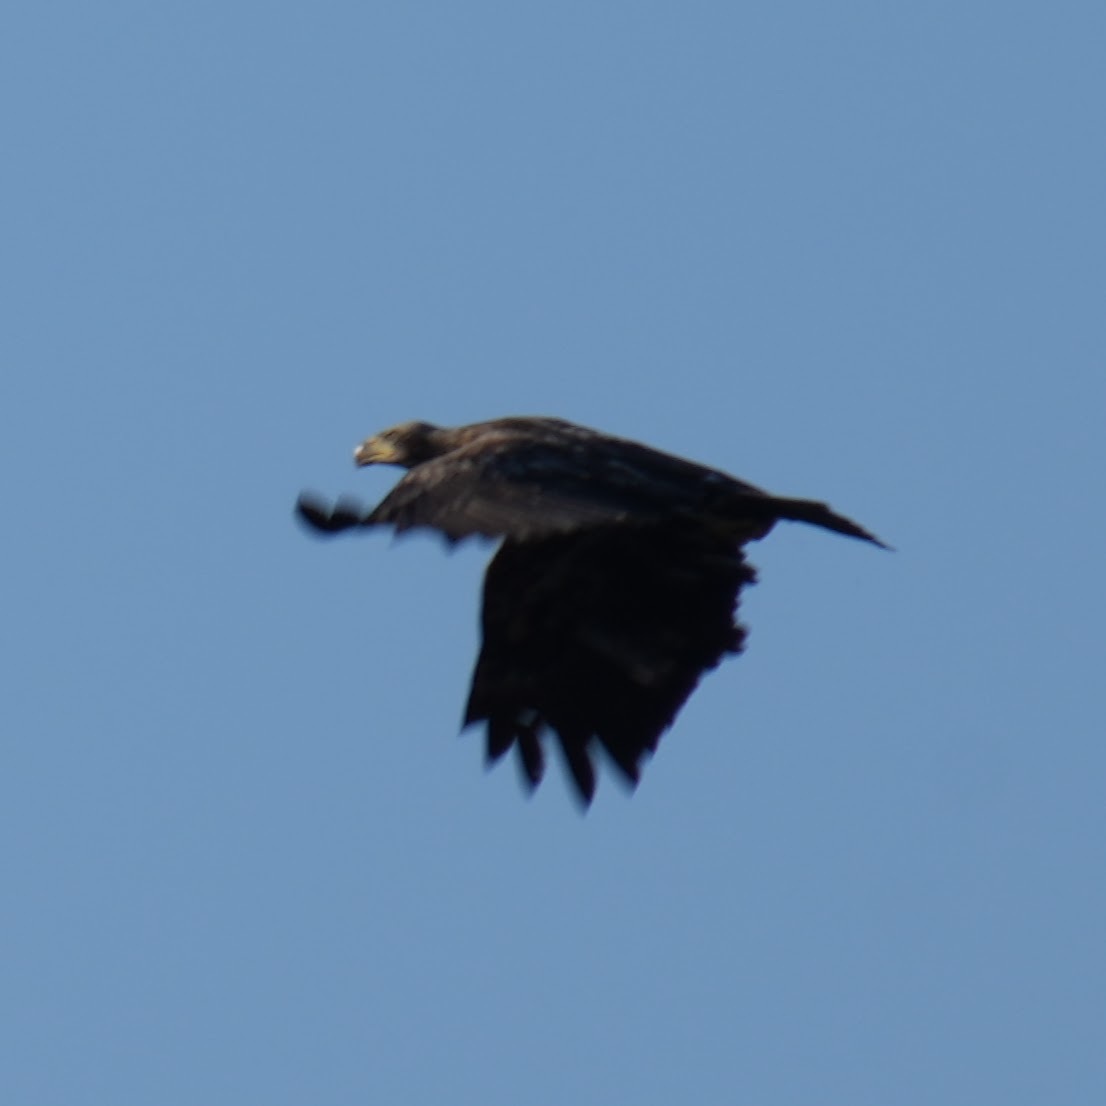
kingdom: Animalia
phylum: Chordata
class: Aves
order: Accipitriformes
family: Accipitridae
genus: Haliaeetus
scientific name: Haliaeetus leucocephalus
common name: Bald eagle
